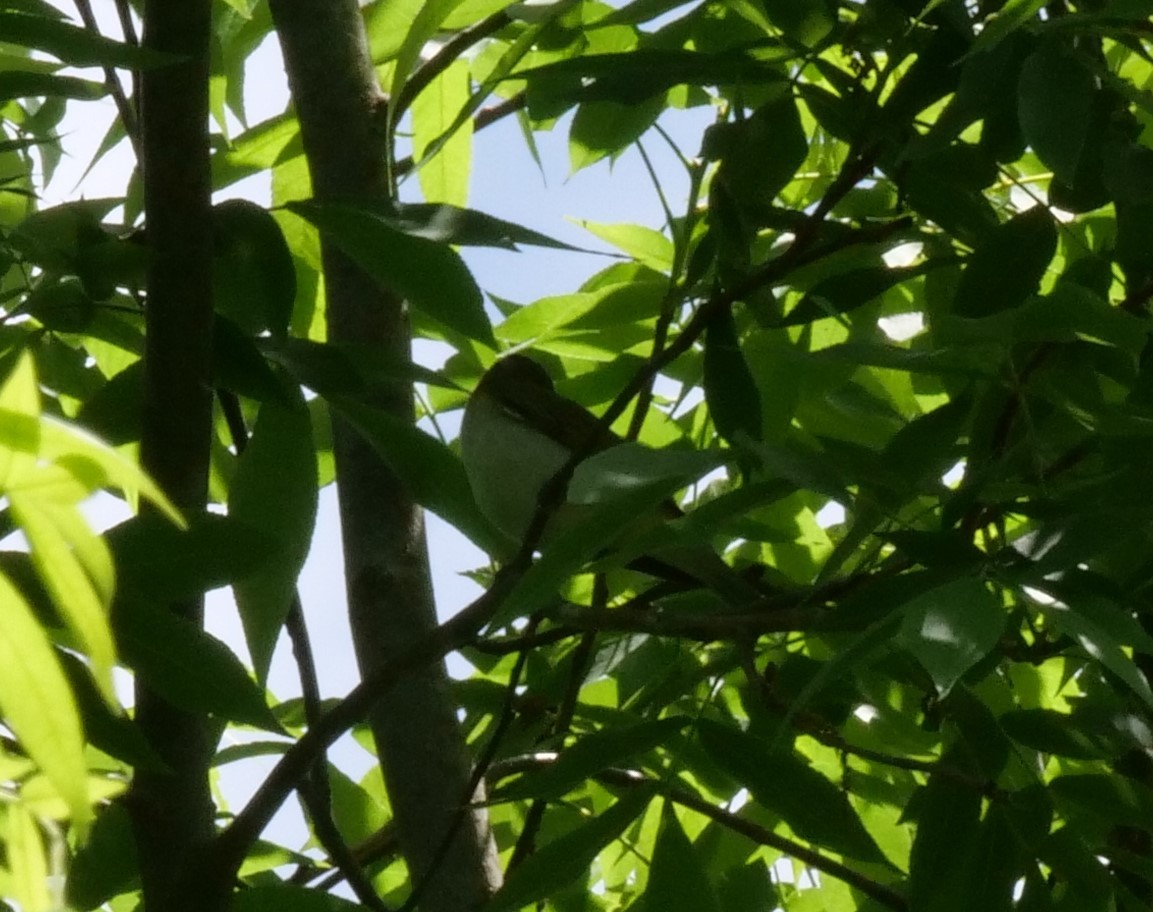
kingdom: Animalia
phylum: Chordata
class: Aves
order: Passeriformes
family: Vireonidae
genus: Vireo
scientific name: Vireo olivaceus
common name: Red-eyed vireo
